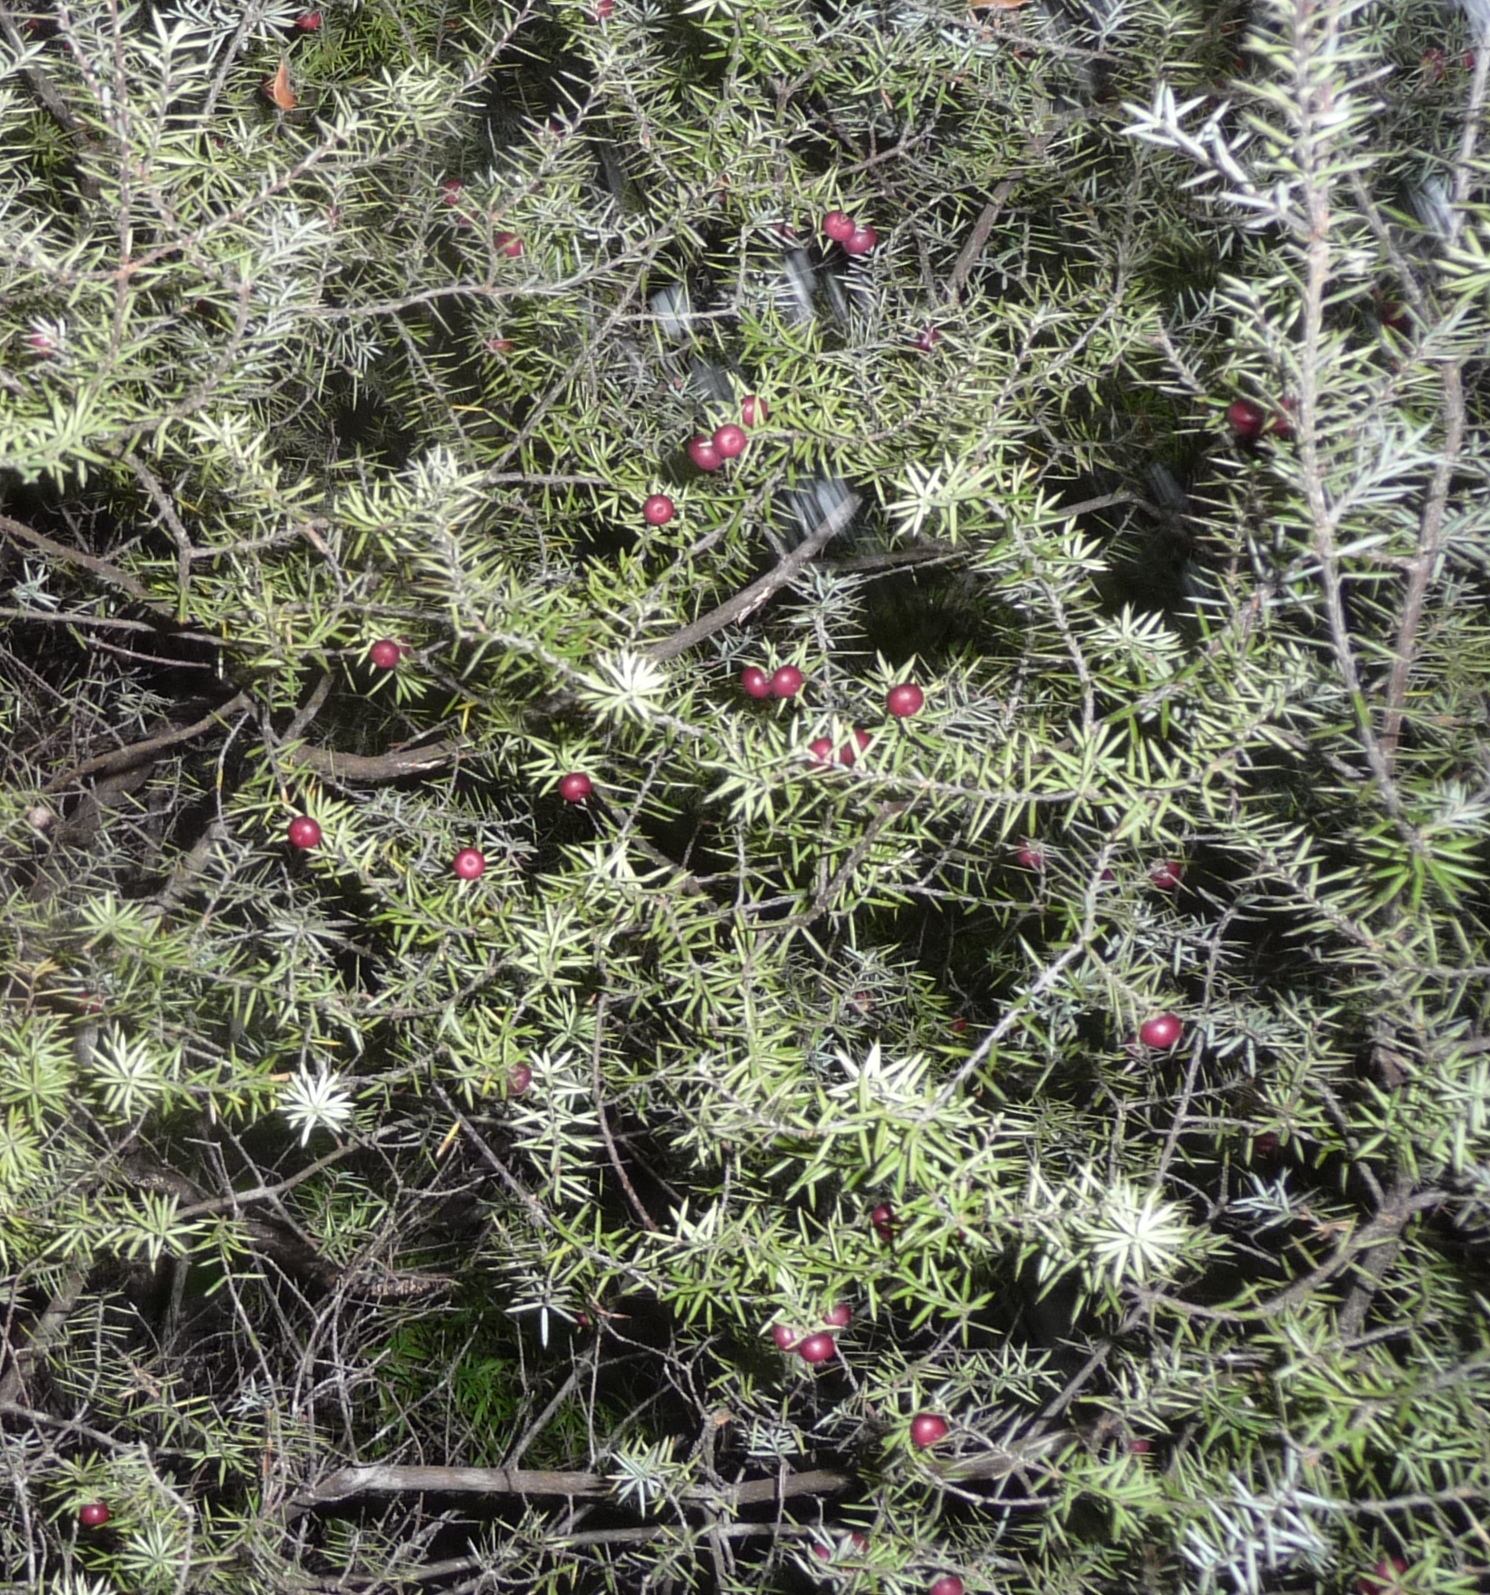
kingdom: Plantae
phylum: Tracheophyta
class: Magnoliopsida
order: Ericales
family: Ericaceae
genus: Leptecophylla
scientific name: Leptecophylla juniperina
